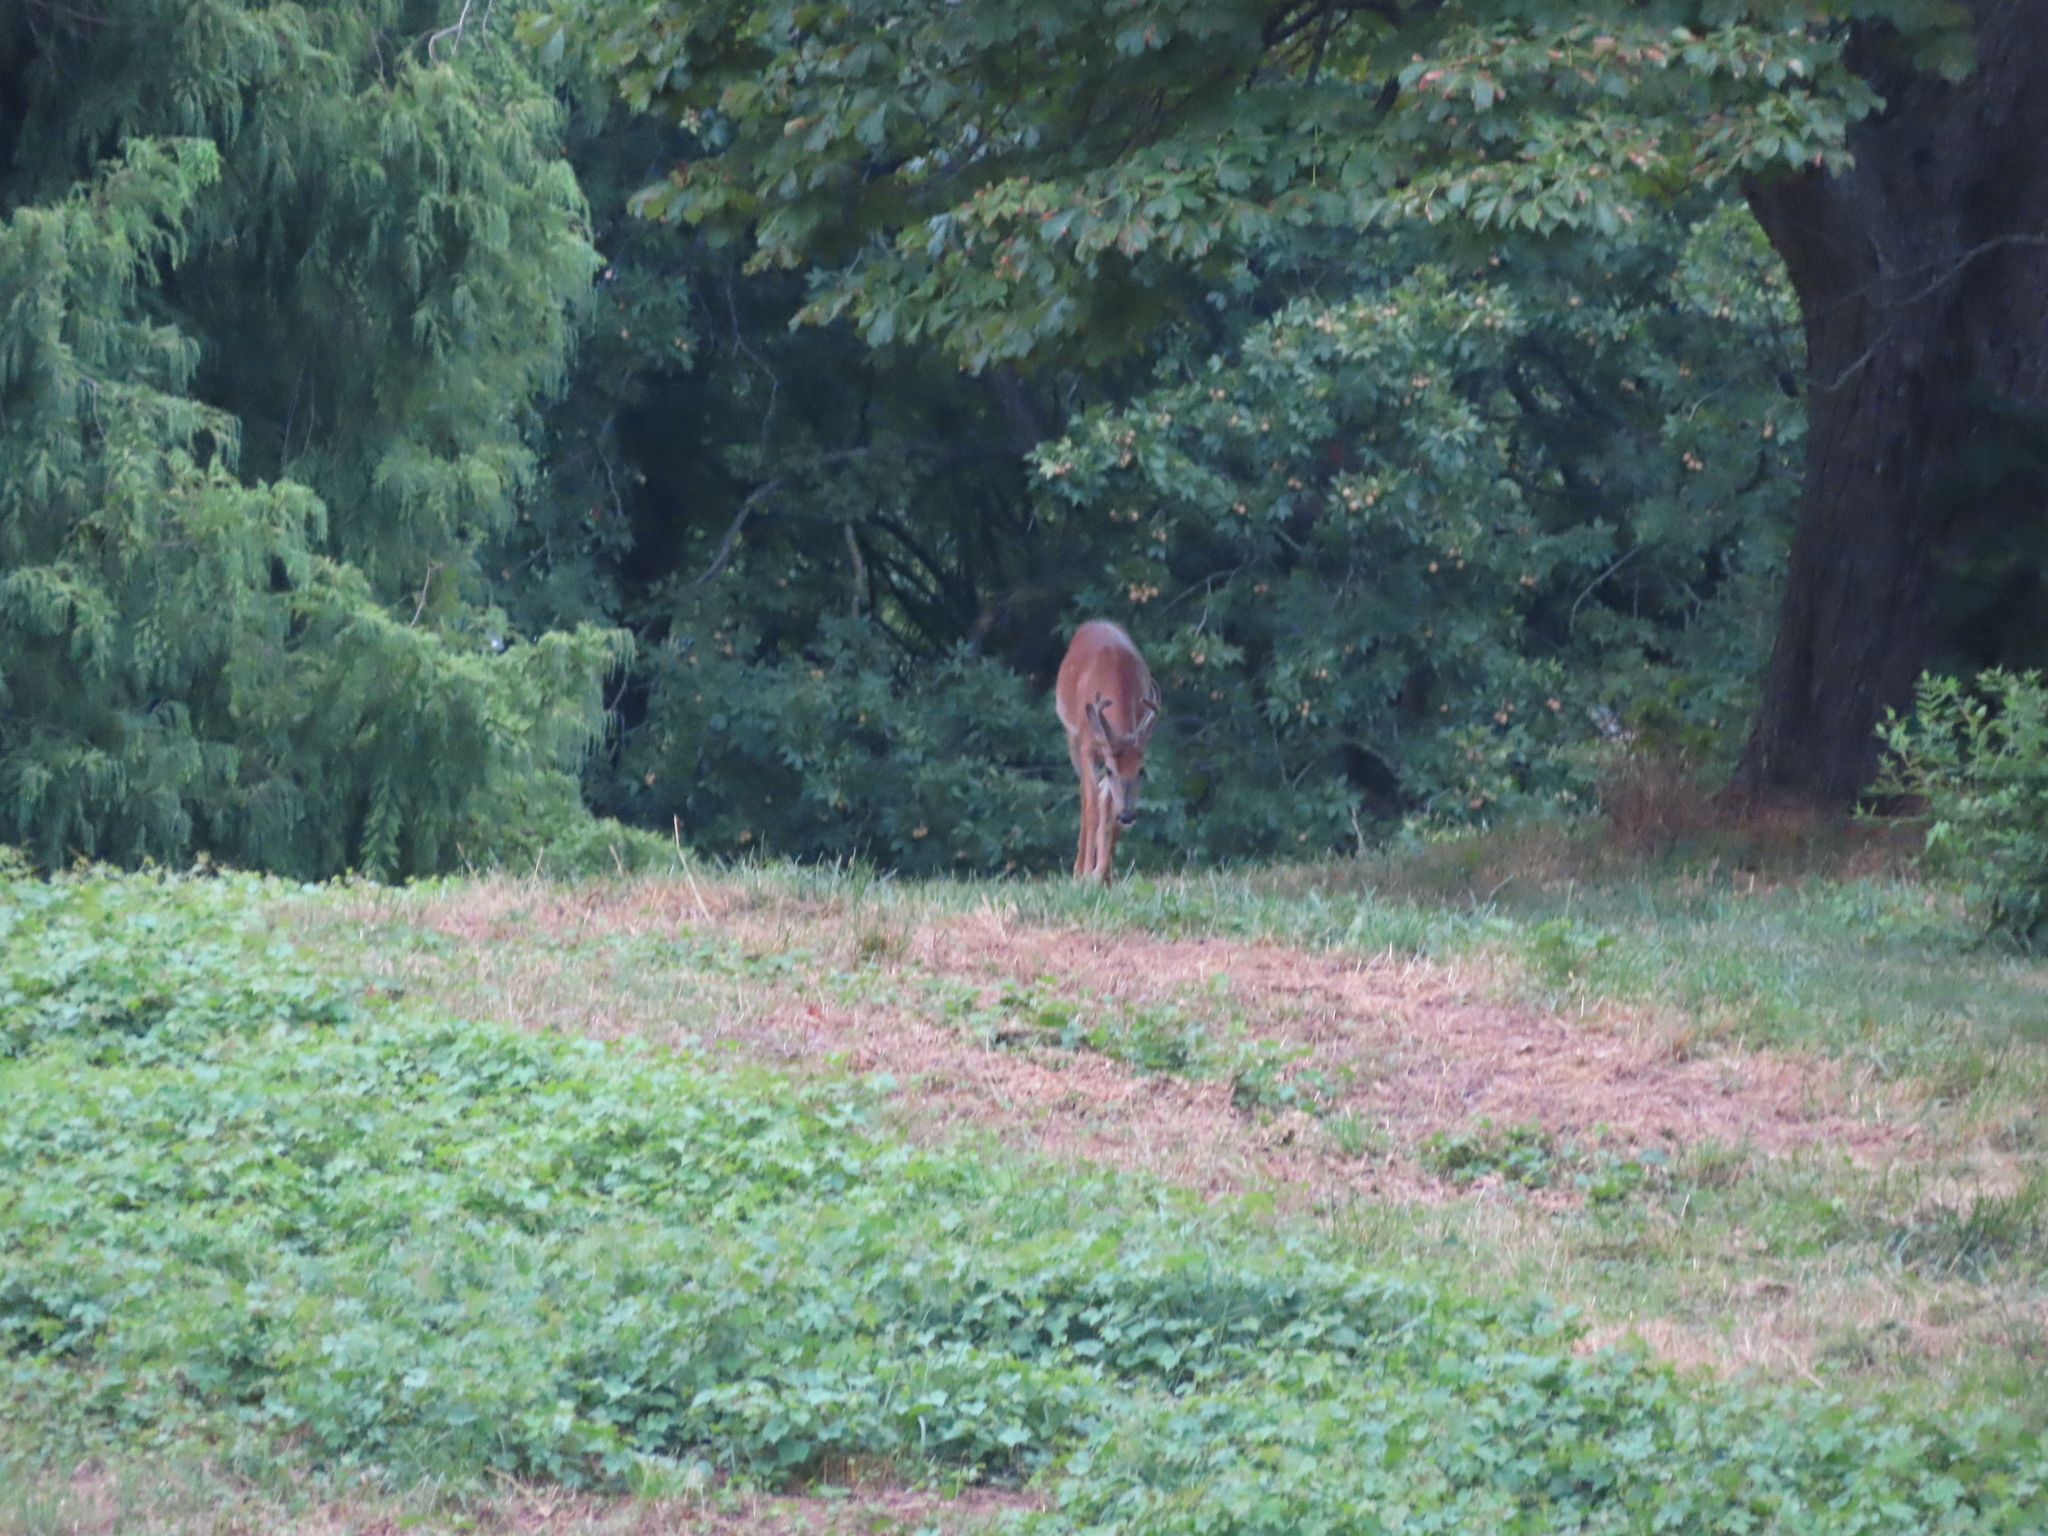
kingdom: Animalia
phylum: Chordata
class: Mammalia
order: Artiodactyla
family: Cervidae
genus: Odocoileus
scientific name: Odocoileus virginianus
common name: White-tailed deer
